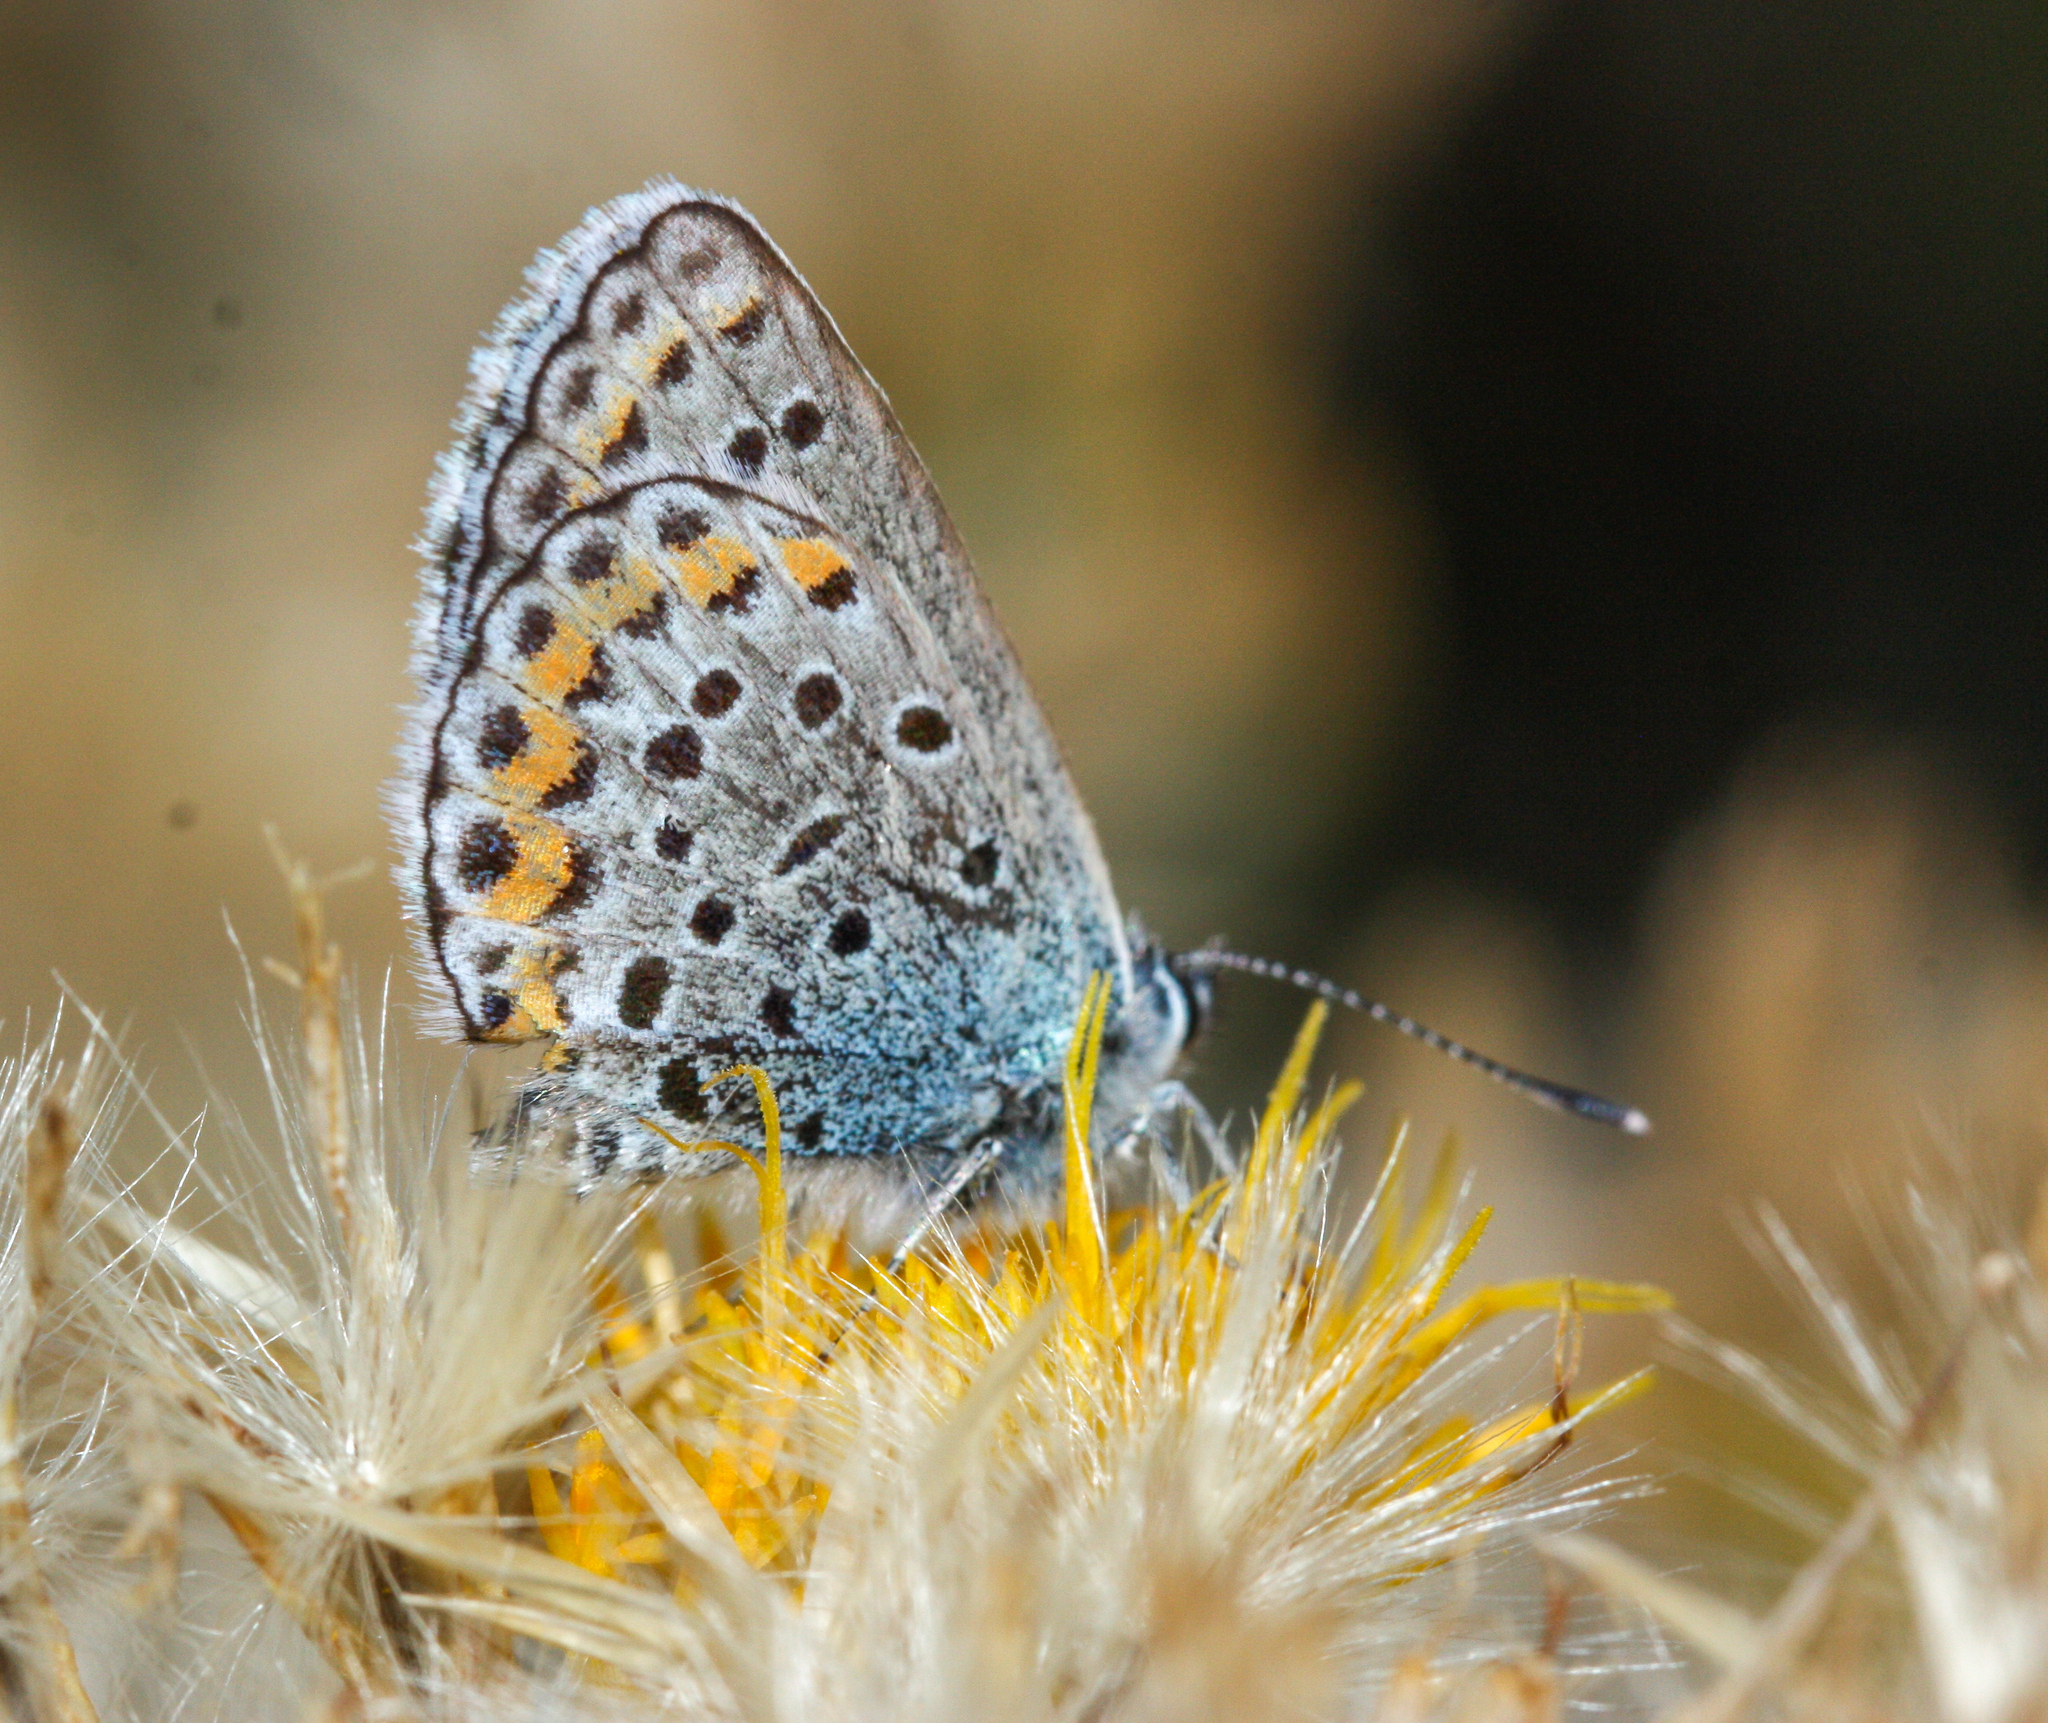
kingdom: Animalia
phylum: Arthropoda
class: Insecta
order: Lepidoptera
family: Lycaenidae
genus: Lycaeides
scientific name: Lycaeides melissa
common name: Melissa blue
